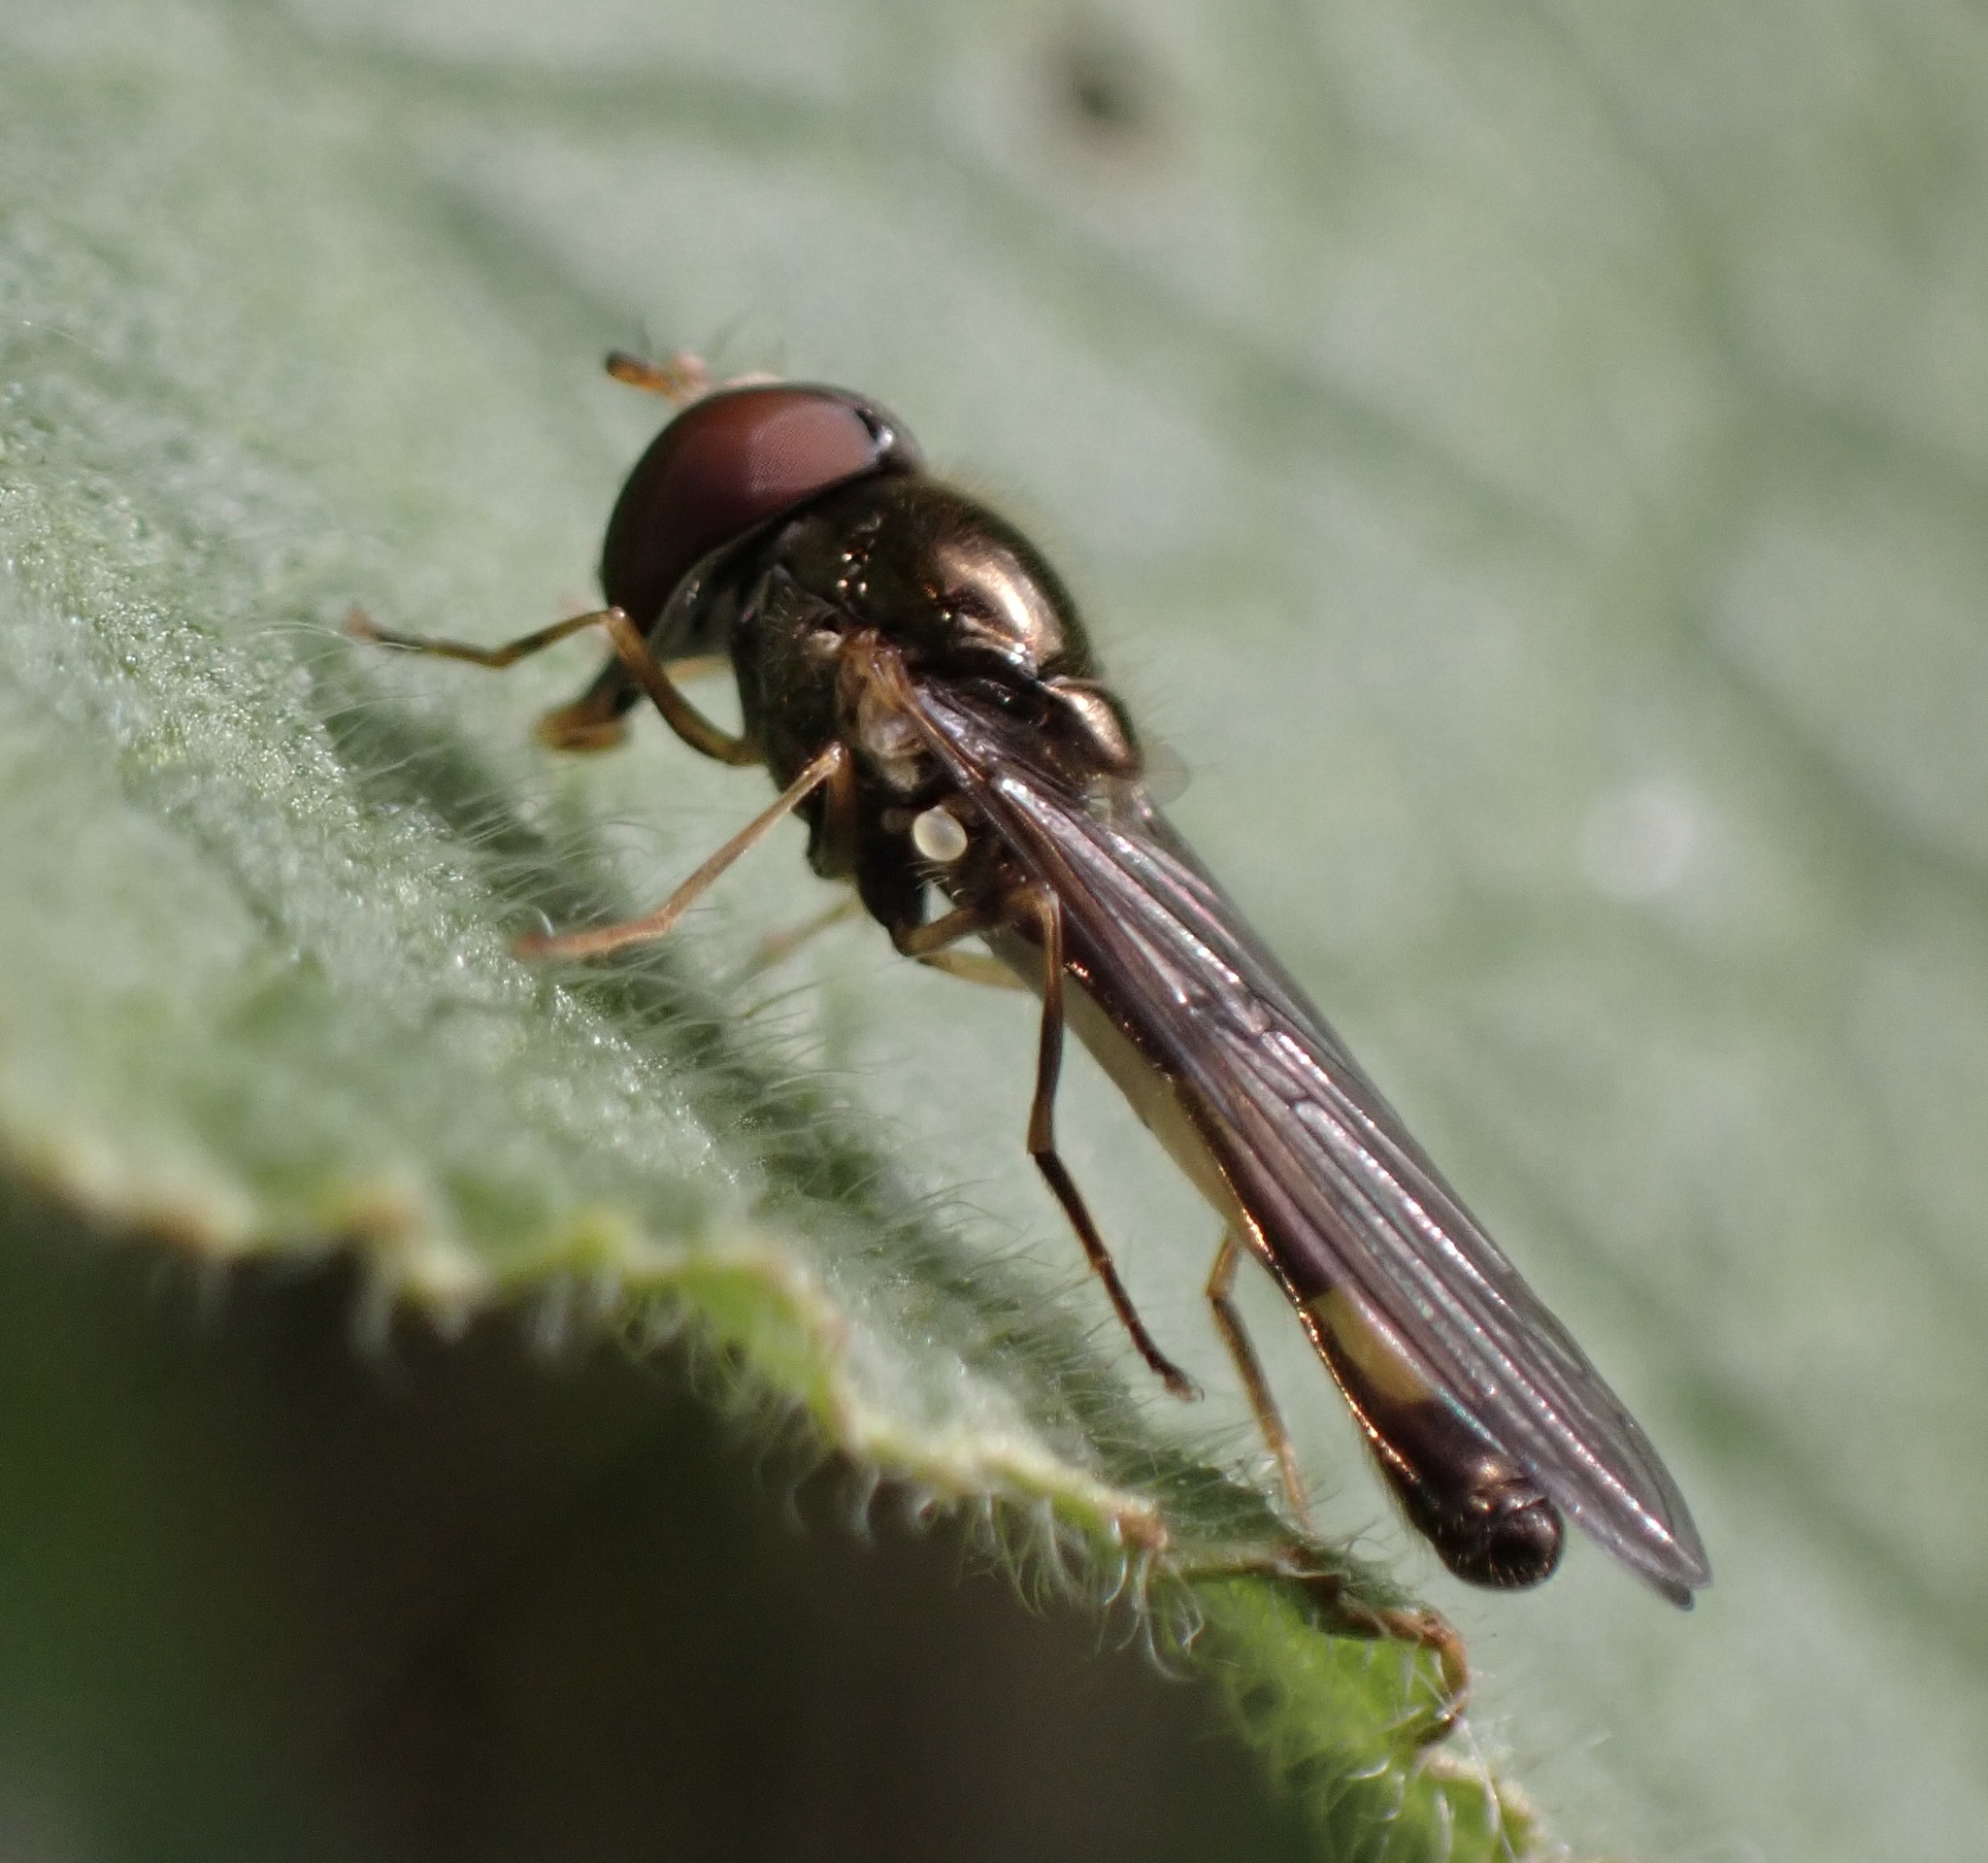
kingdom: Animalia
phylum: Arthropoda
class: Insecta
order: Diptera
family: Syrphidae
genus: Melanostoma
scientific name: Melanostoma scalare
